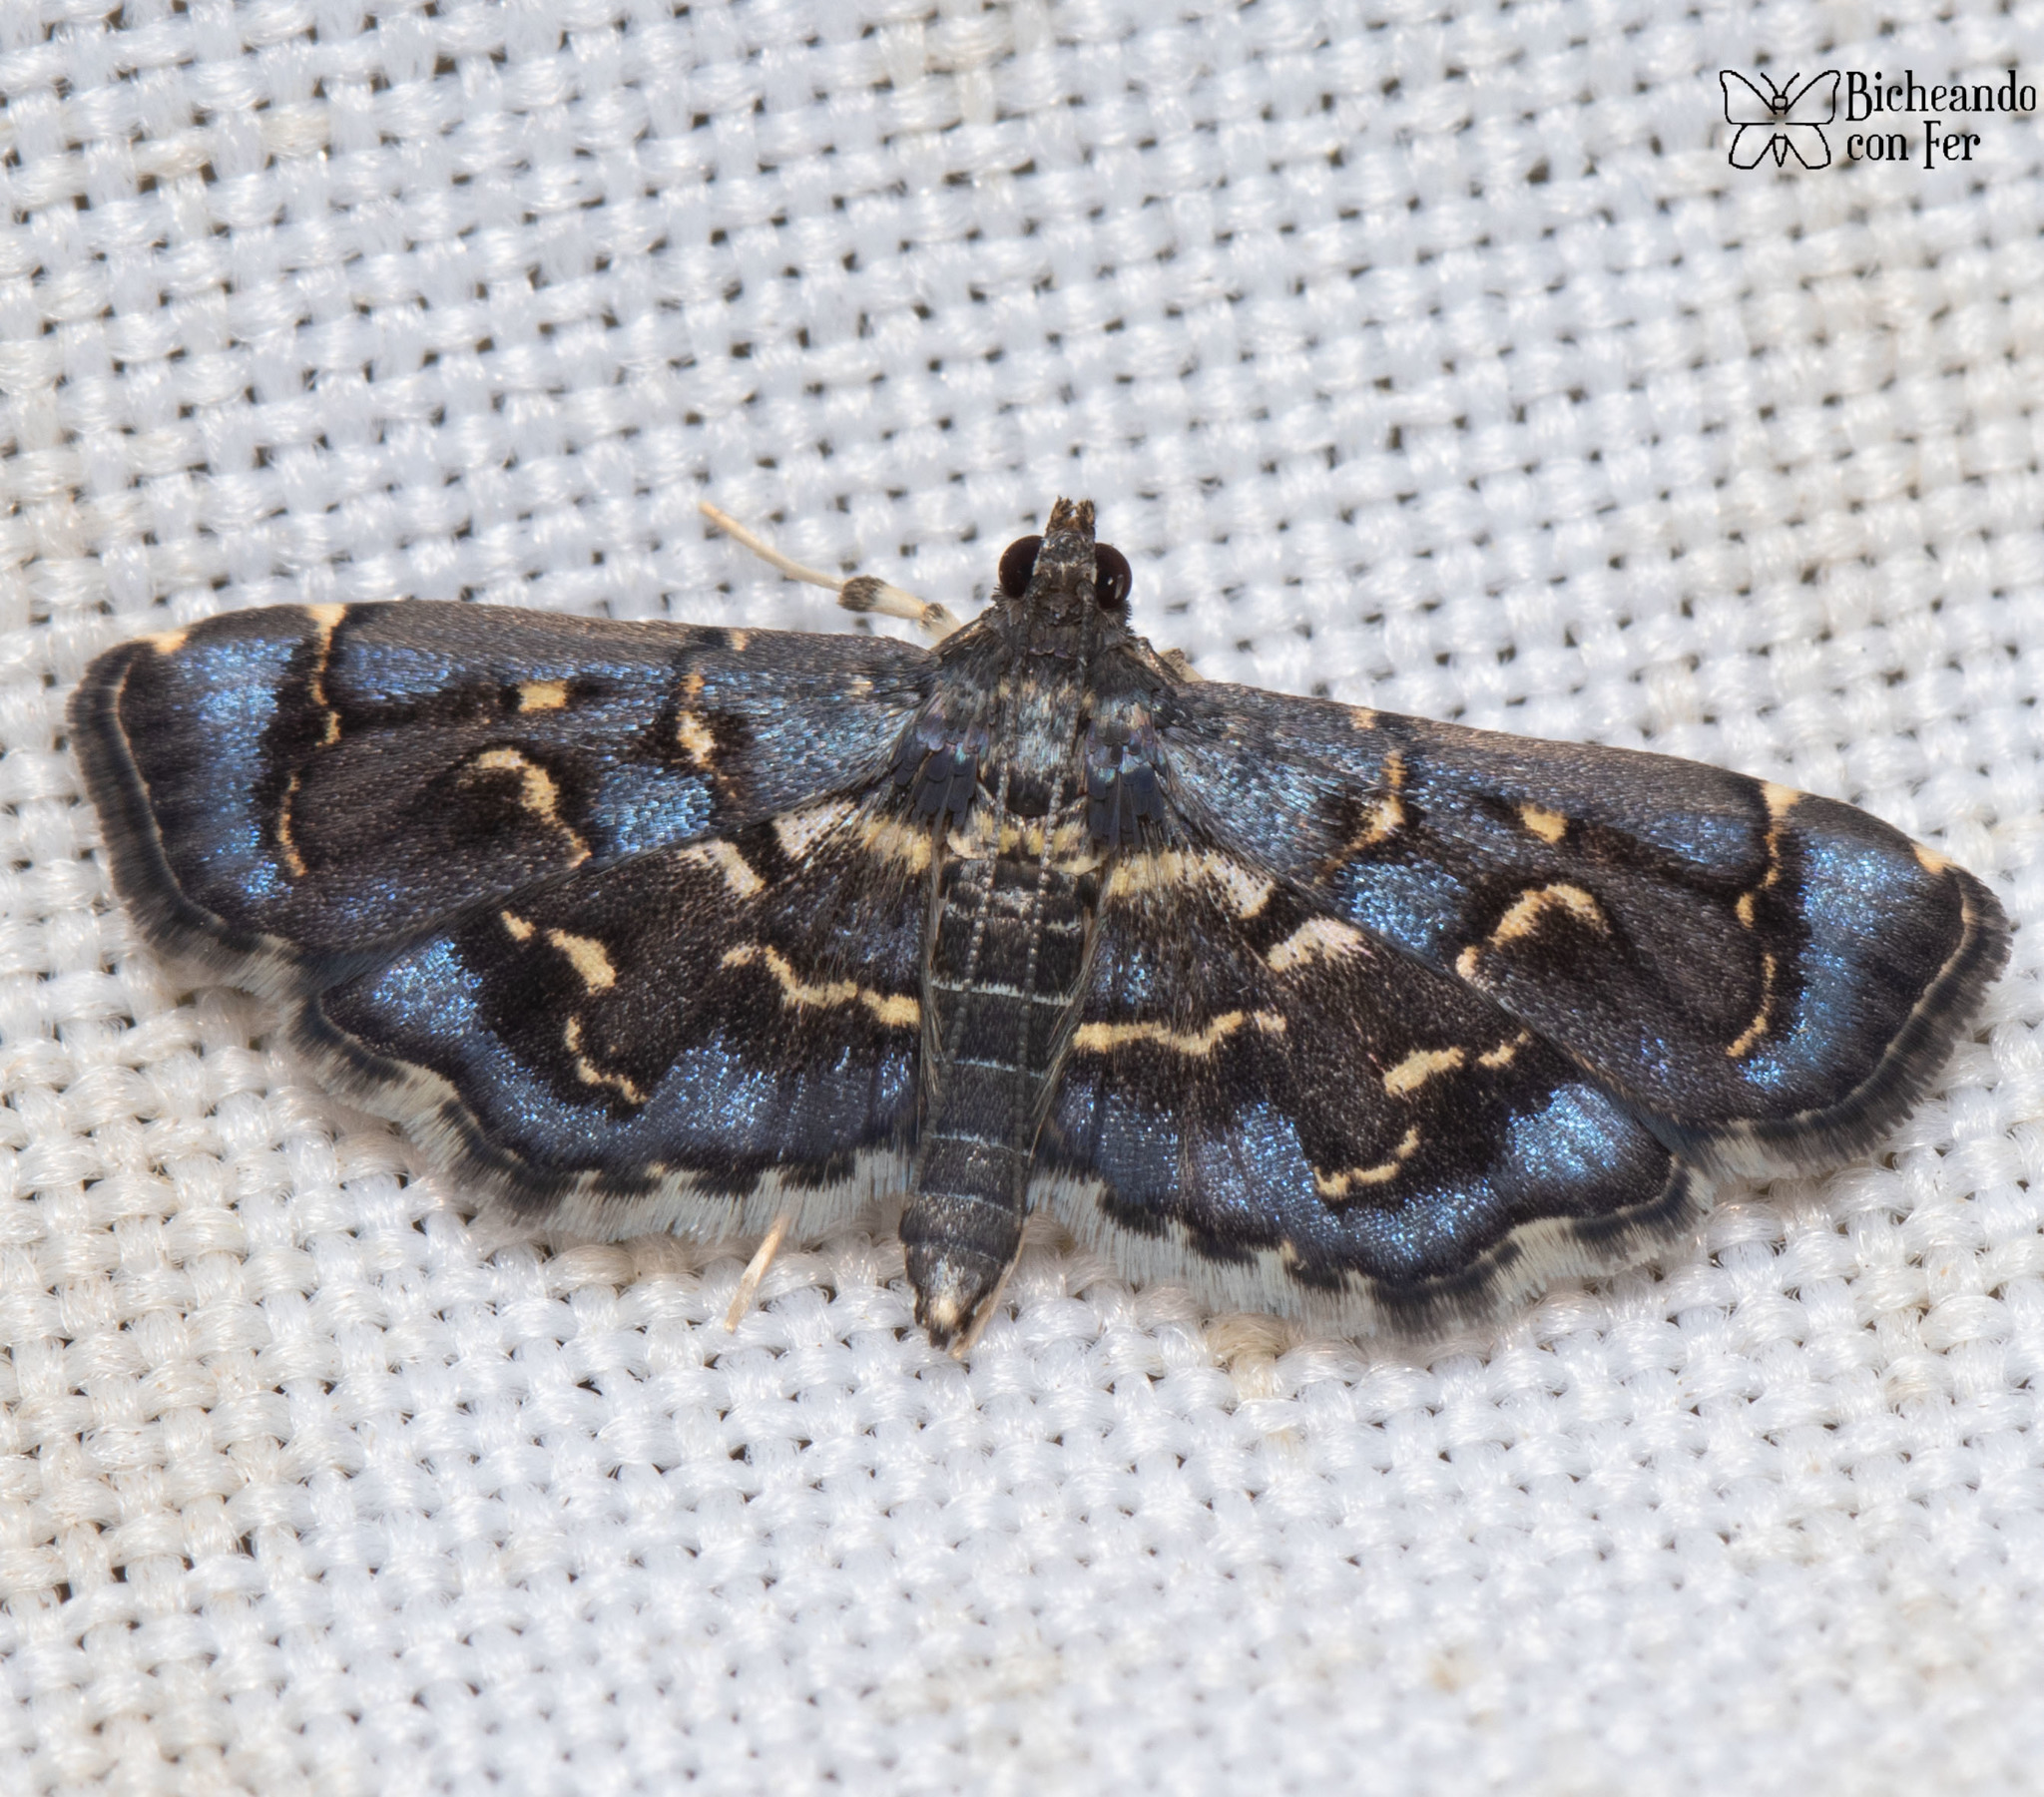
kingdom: Animalia
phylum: Arthropoda
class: Insecta
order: Lepidoptera
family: Crambidae
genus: Eurrhyparodes
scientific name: Eurrhyparodes lygdamis
